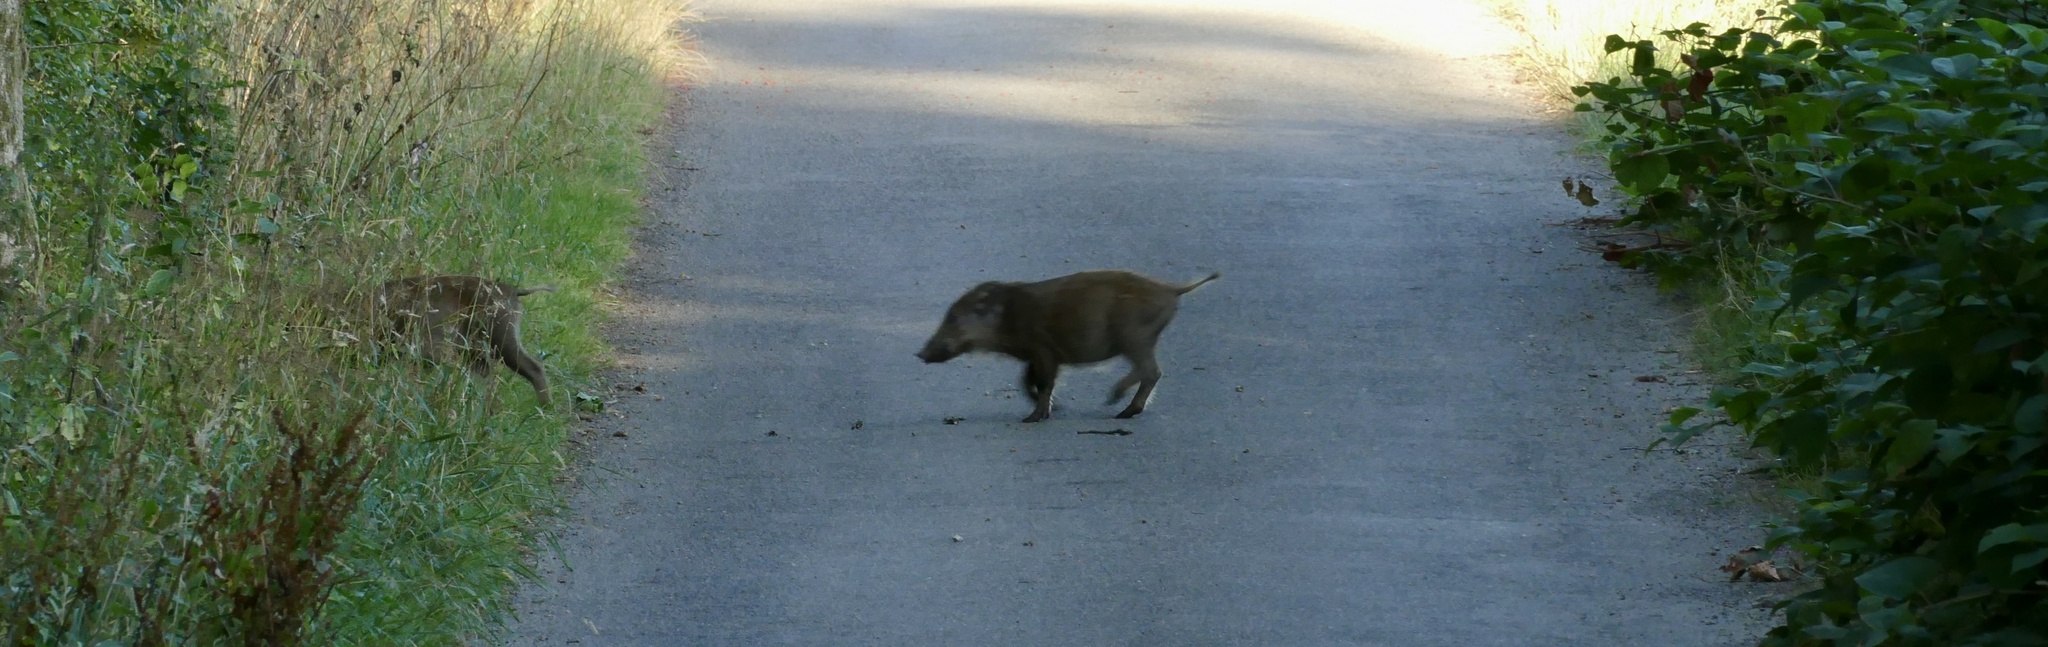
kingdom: Animalia
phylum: Chordata
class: Mammalia
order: Artiodactyla
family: Suidae
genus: Sus
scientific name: Sus scrofa
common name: Wild boar
